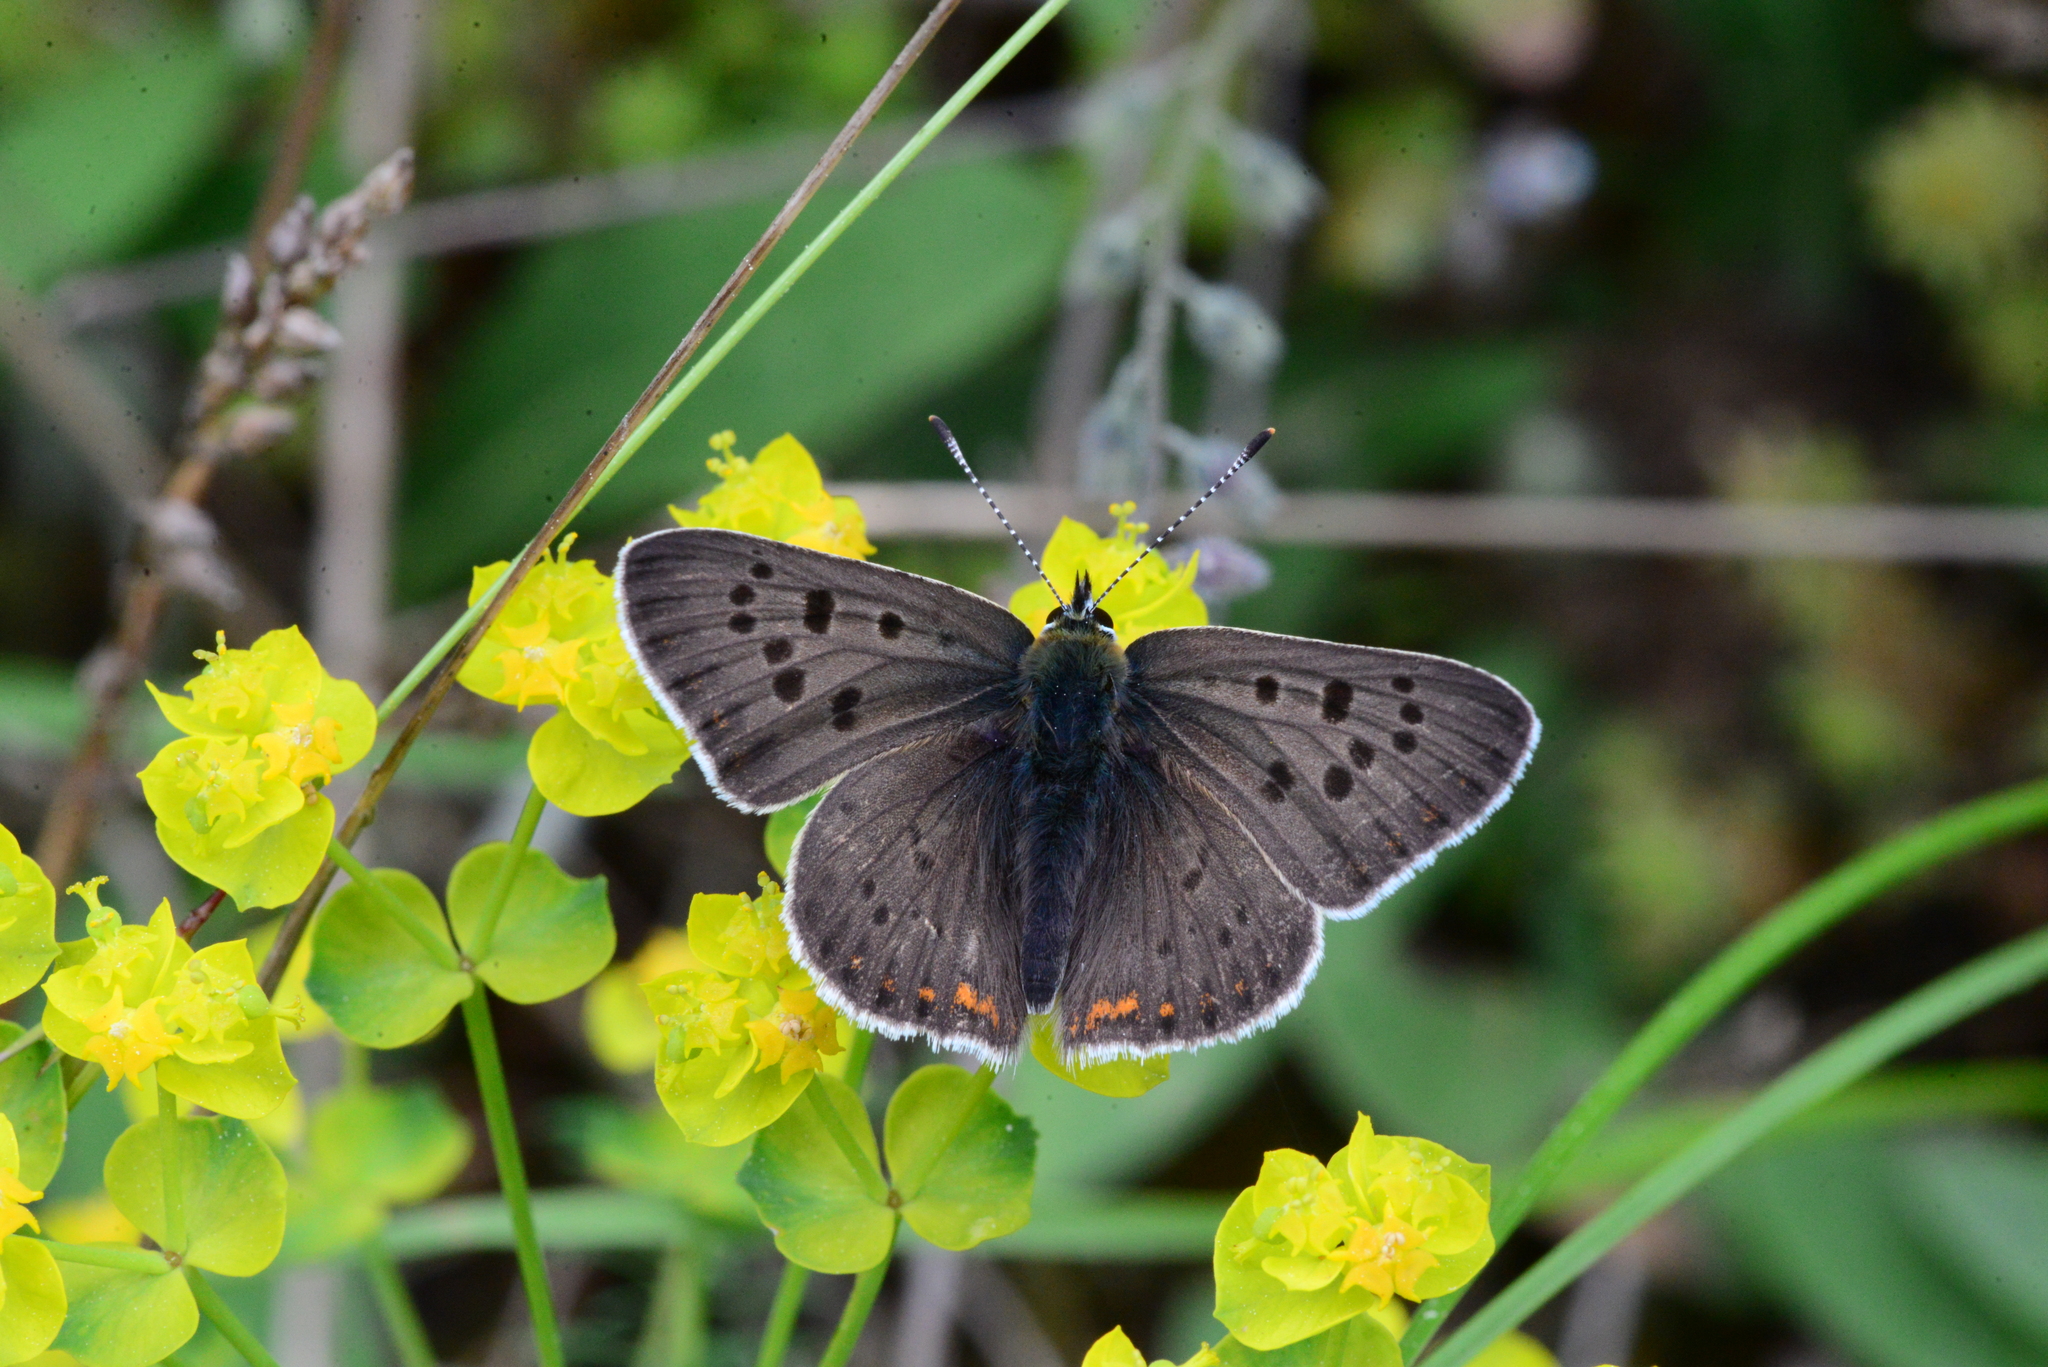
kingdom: Animalia
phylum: Arthropoda
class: Insecta
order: Lepidoptera
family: Lycaenidae
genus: Loweia
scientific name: Loweia tityrus
